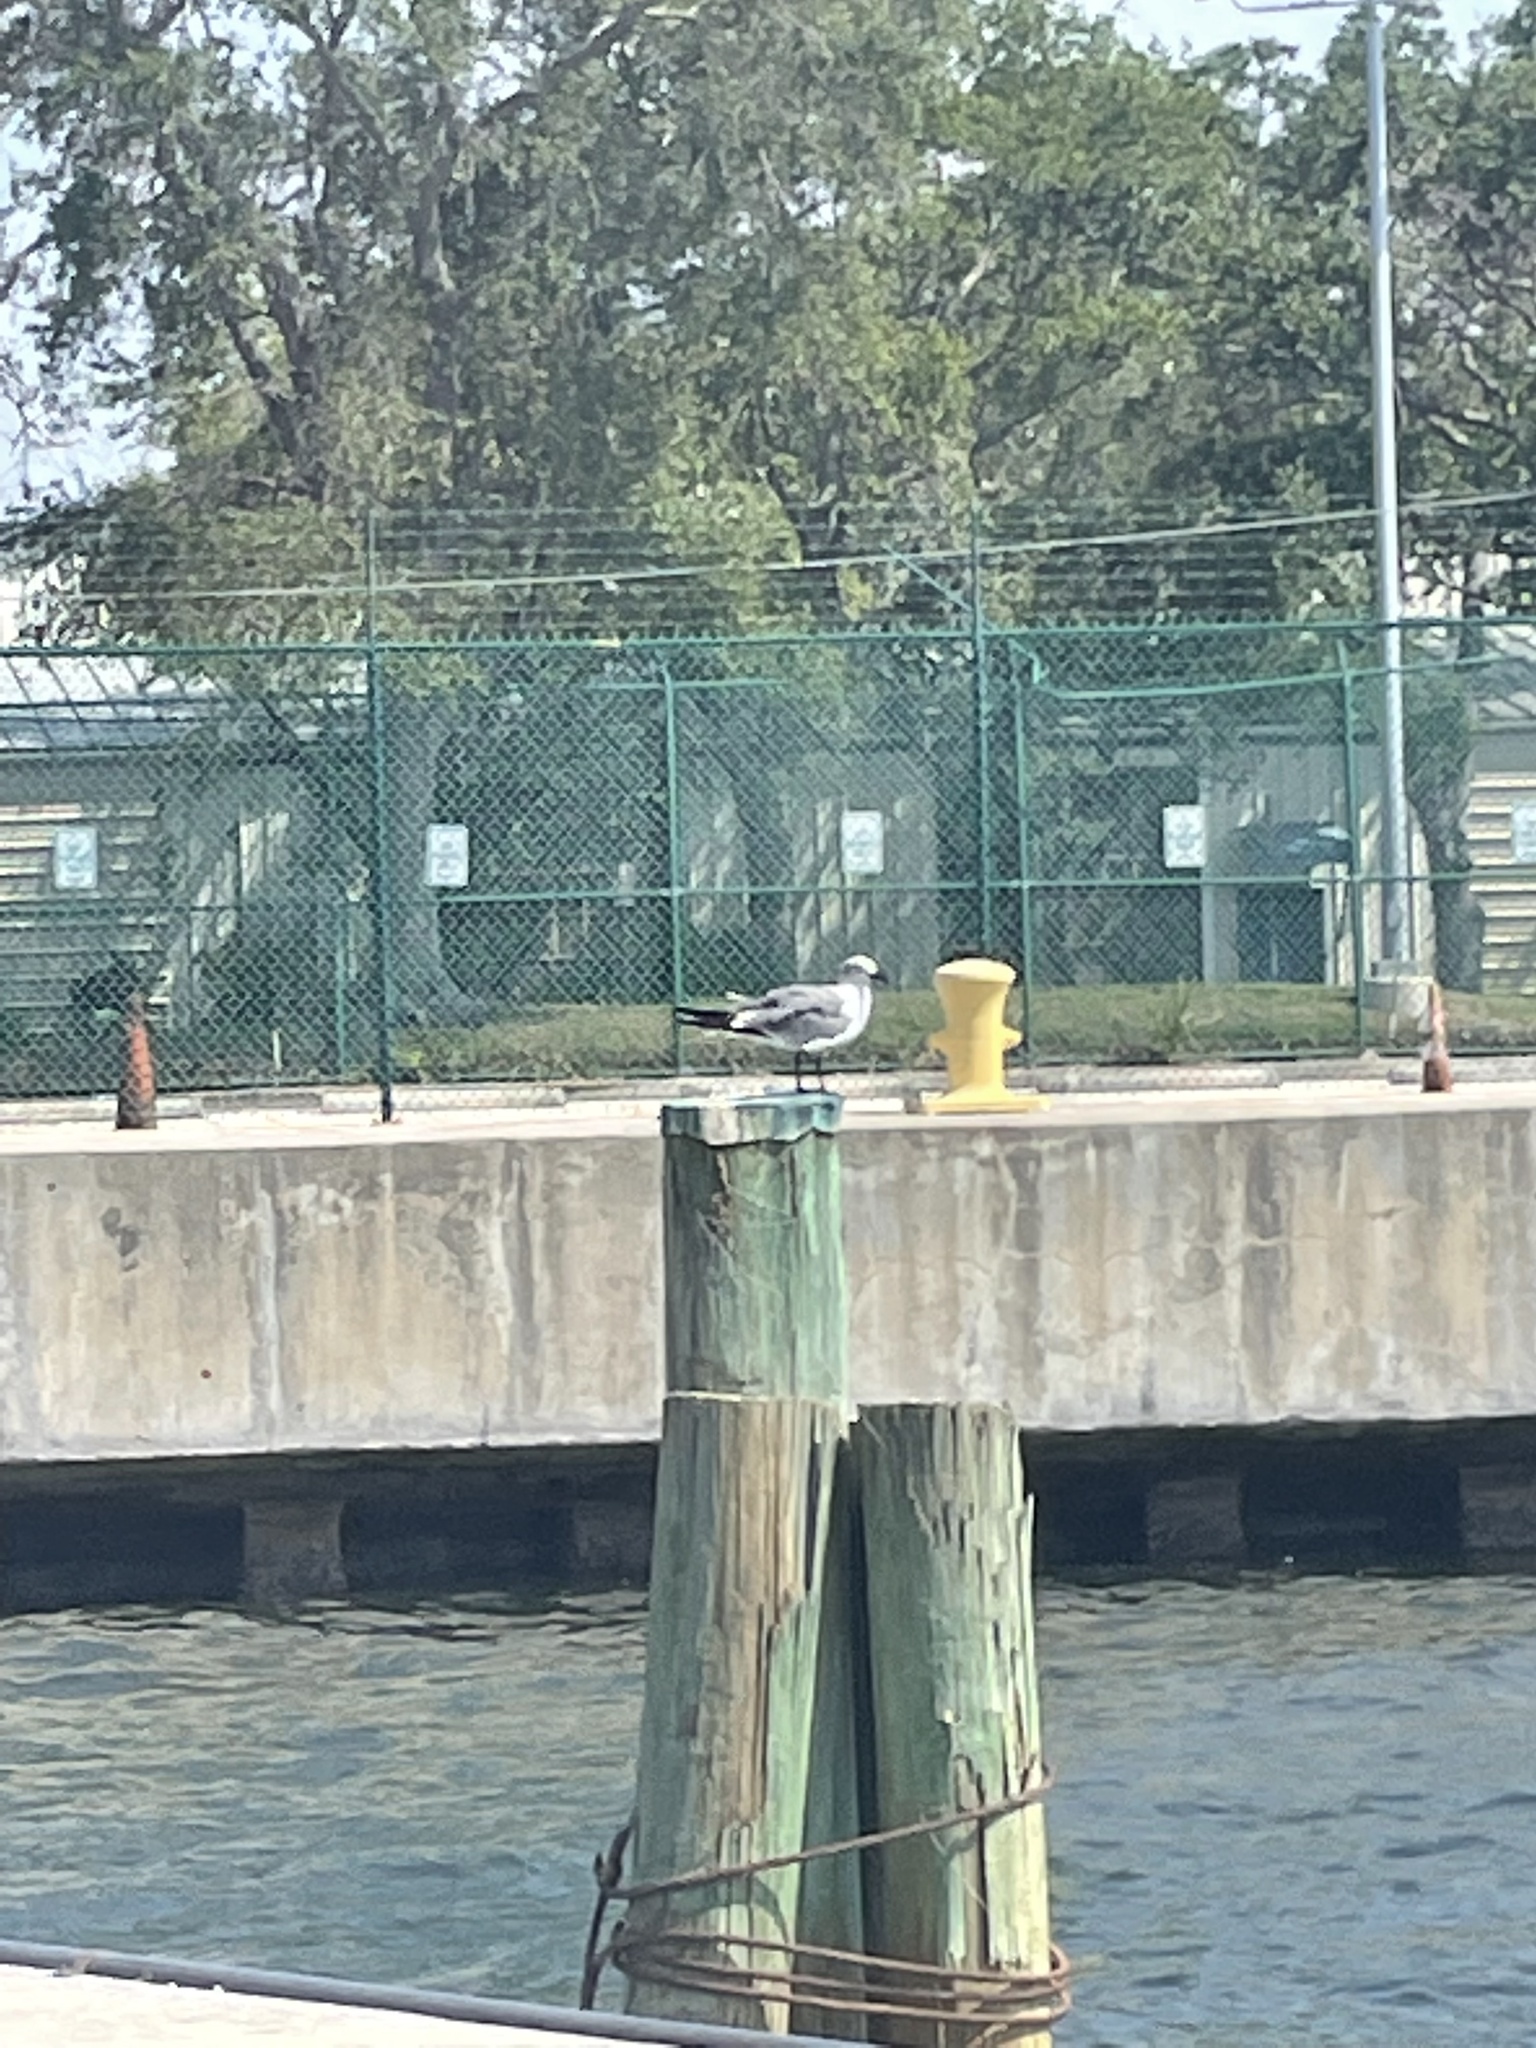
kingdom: Animalia
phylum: Chordata
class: Aves
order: Charadriiformes
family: Laridae
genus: Leucophaeus
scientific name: Leucophaeus atricilla
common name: Laughing gull
